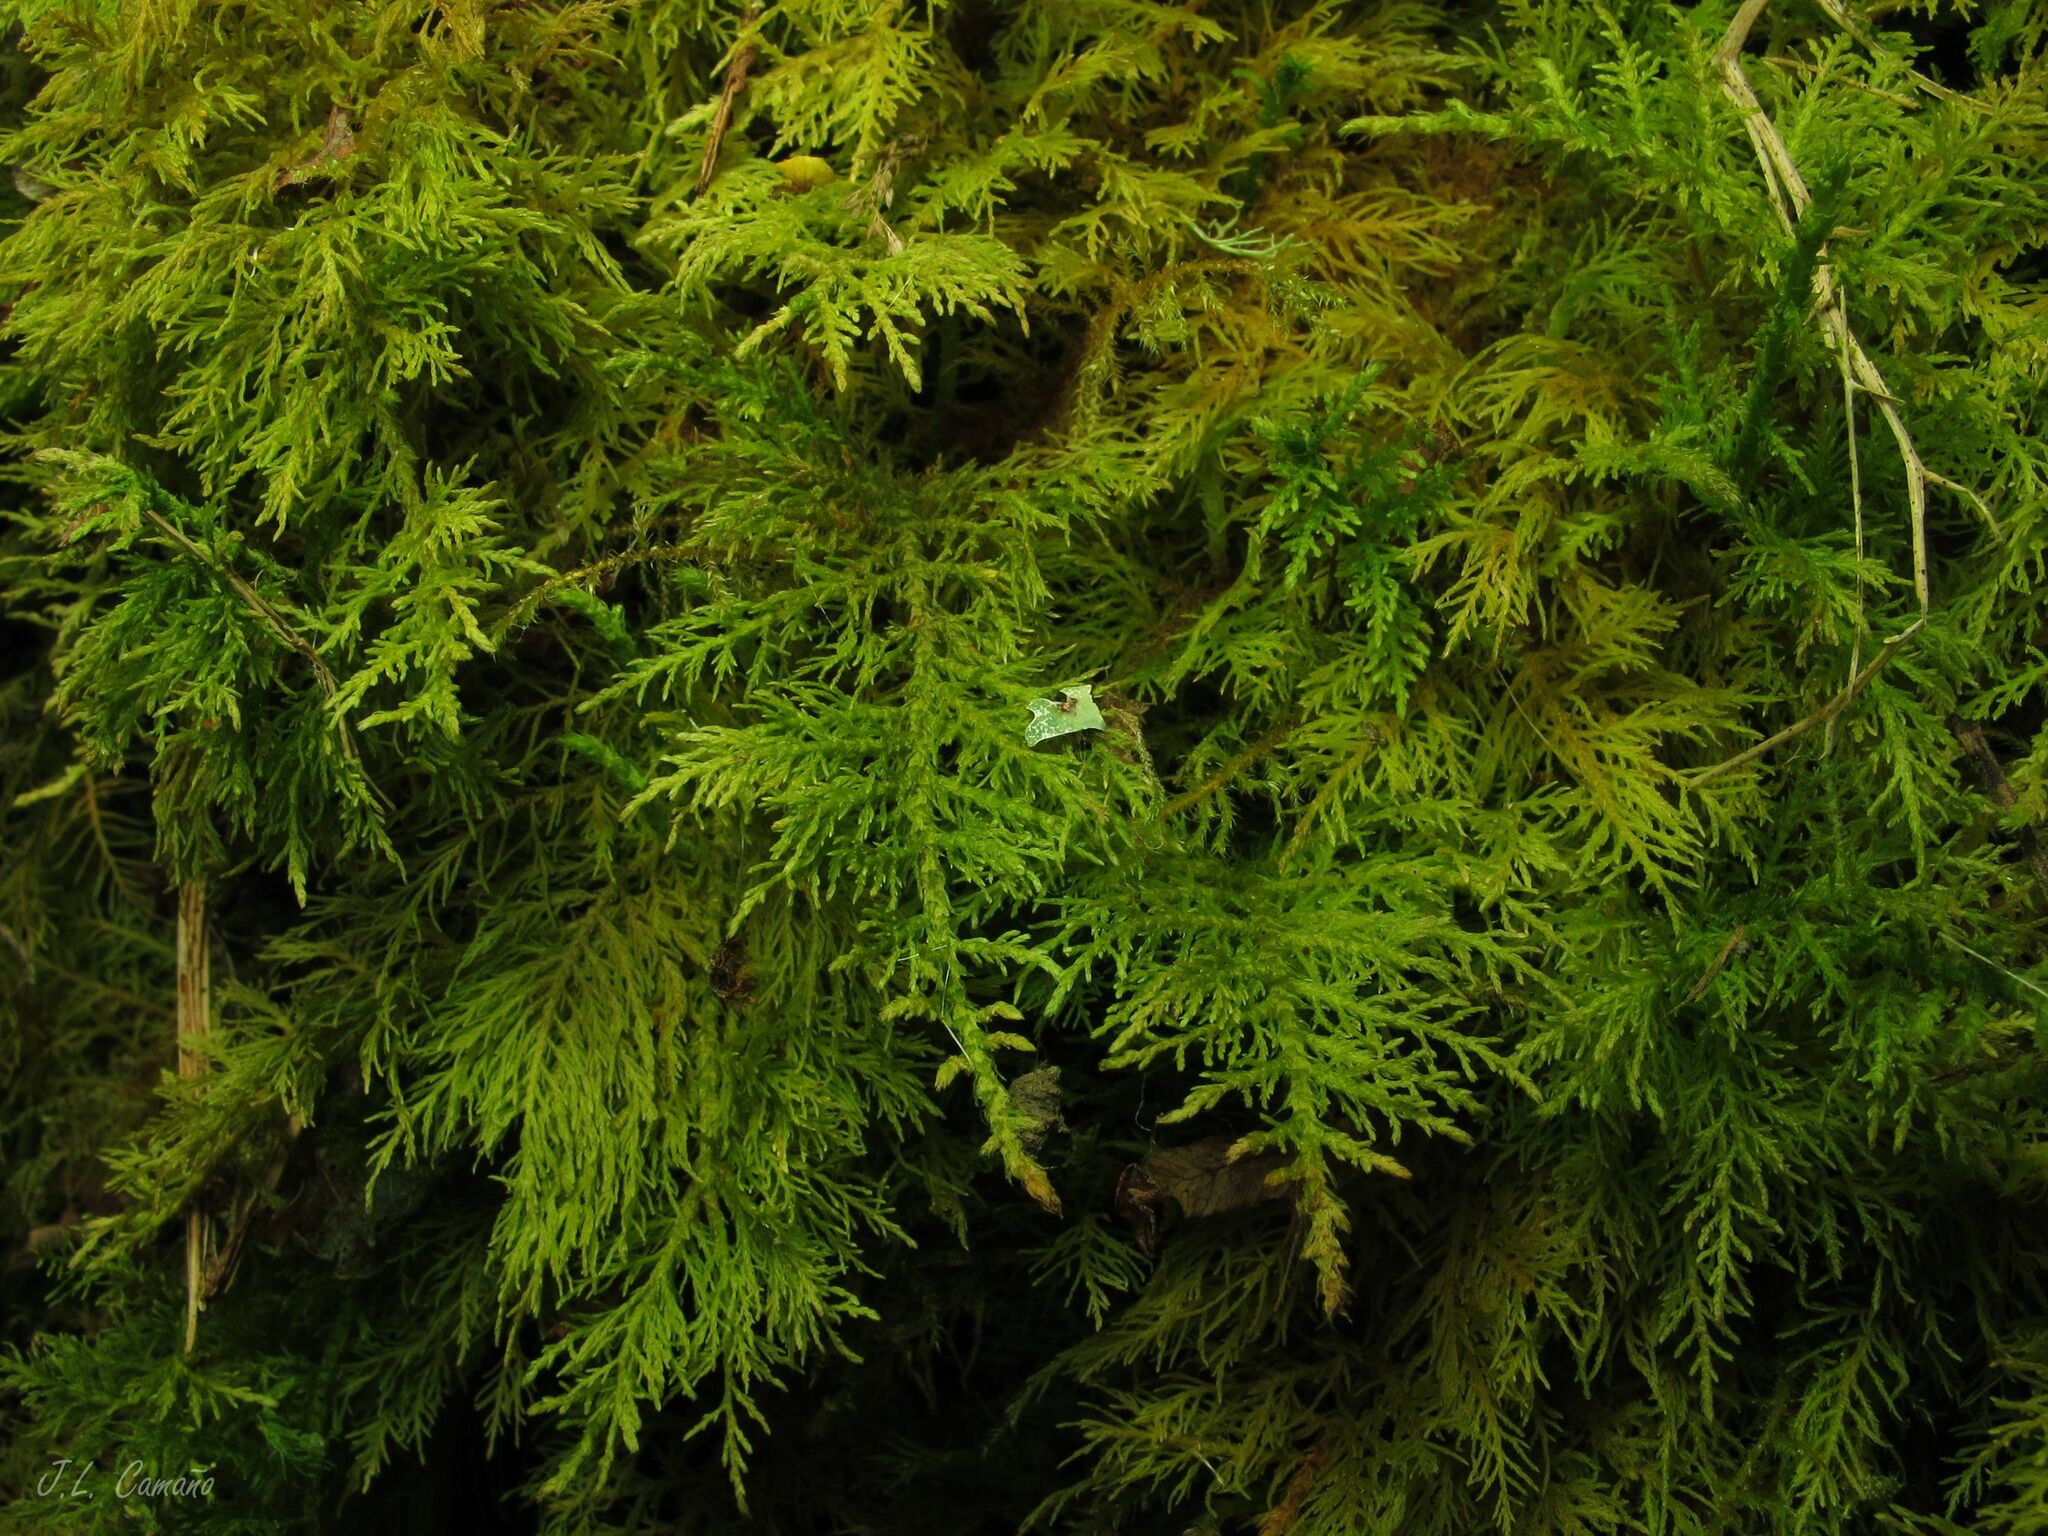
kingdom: Plantae
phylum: Bryophyta
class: Bryopsida
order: Hypnales
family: Thuidiaceae
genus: Thuidium
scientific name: Thuidium tamariscinum
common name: Common tamarisk-moss
